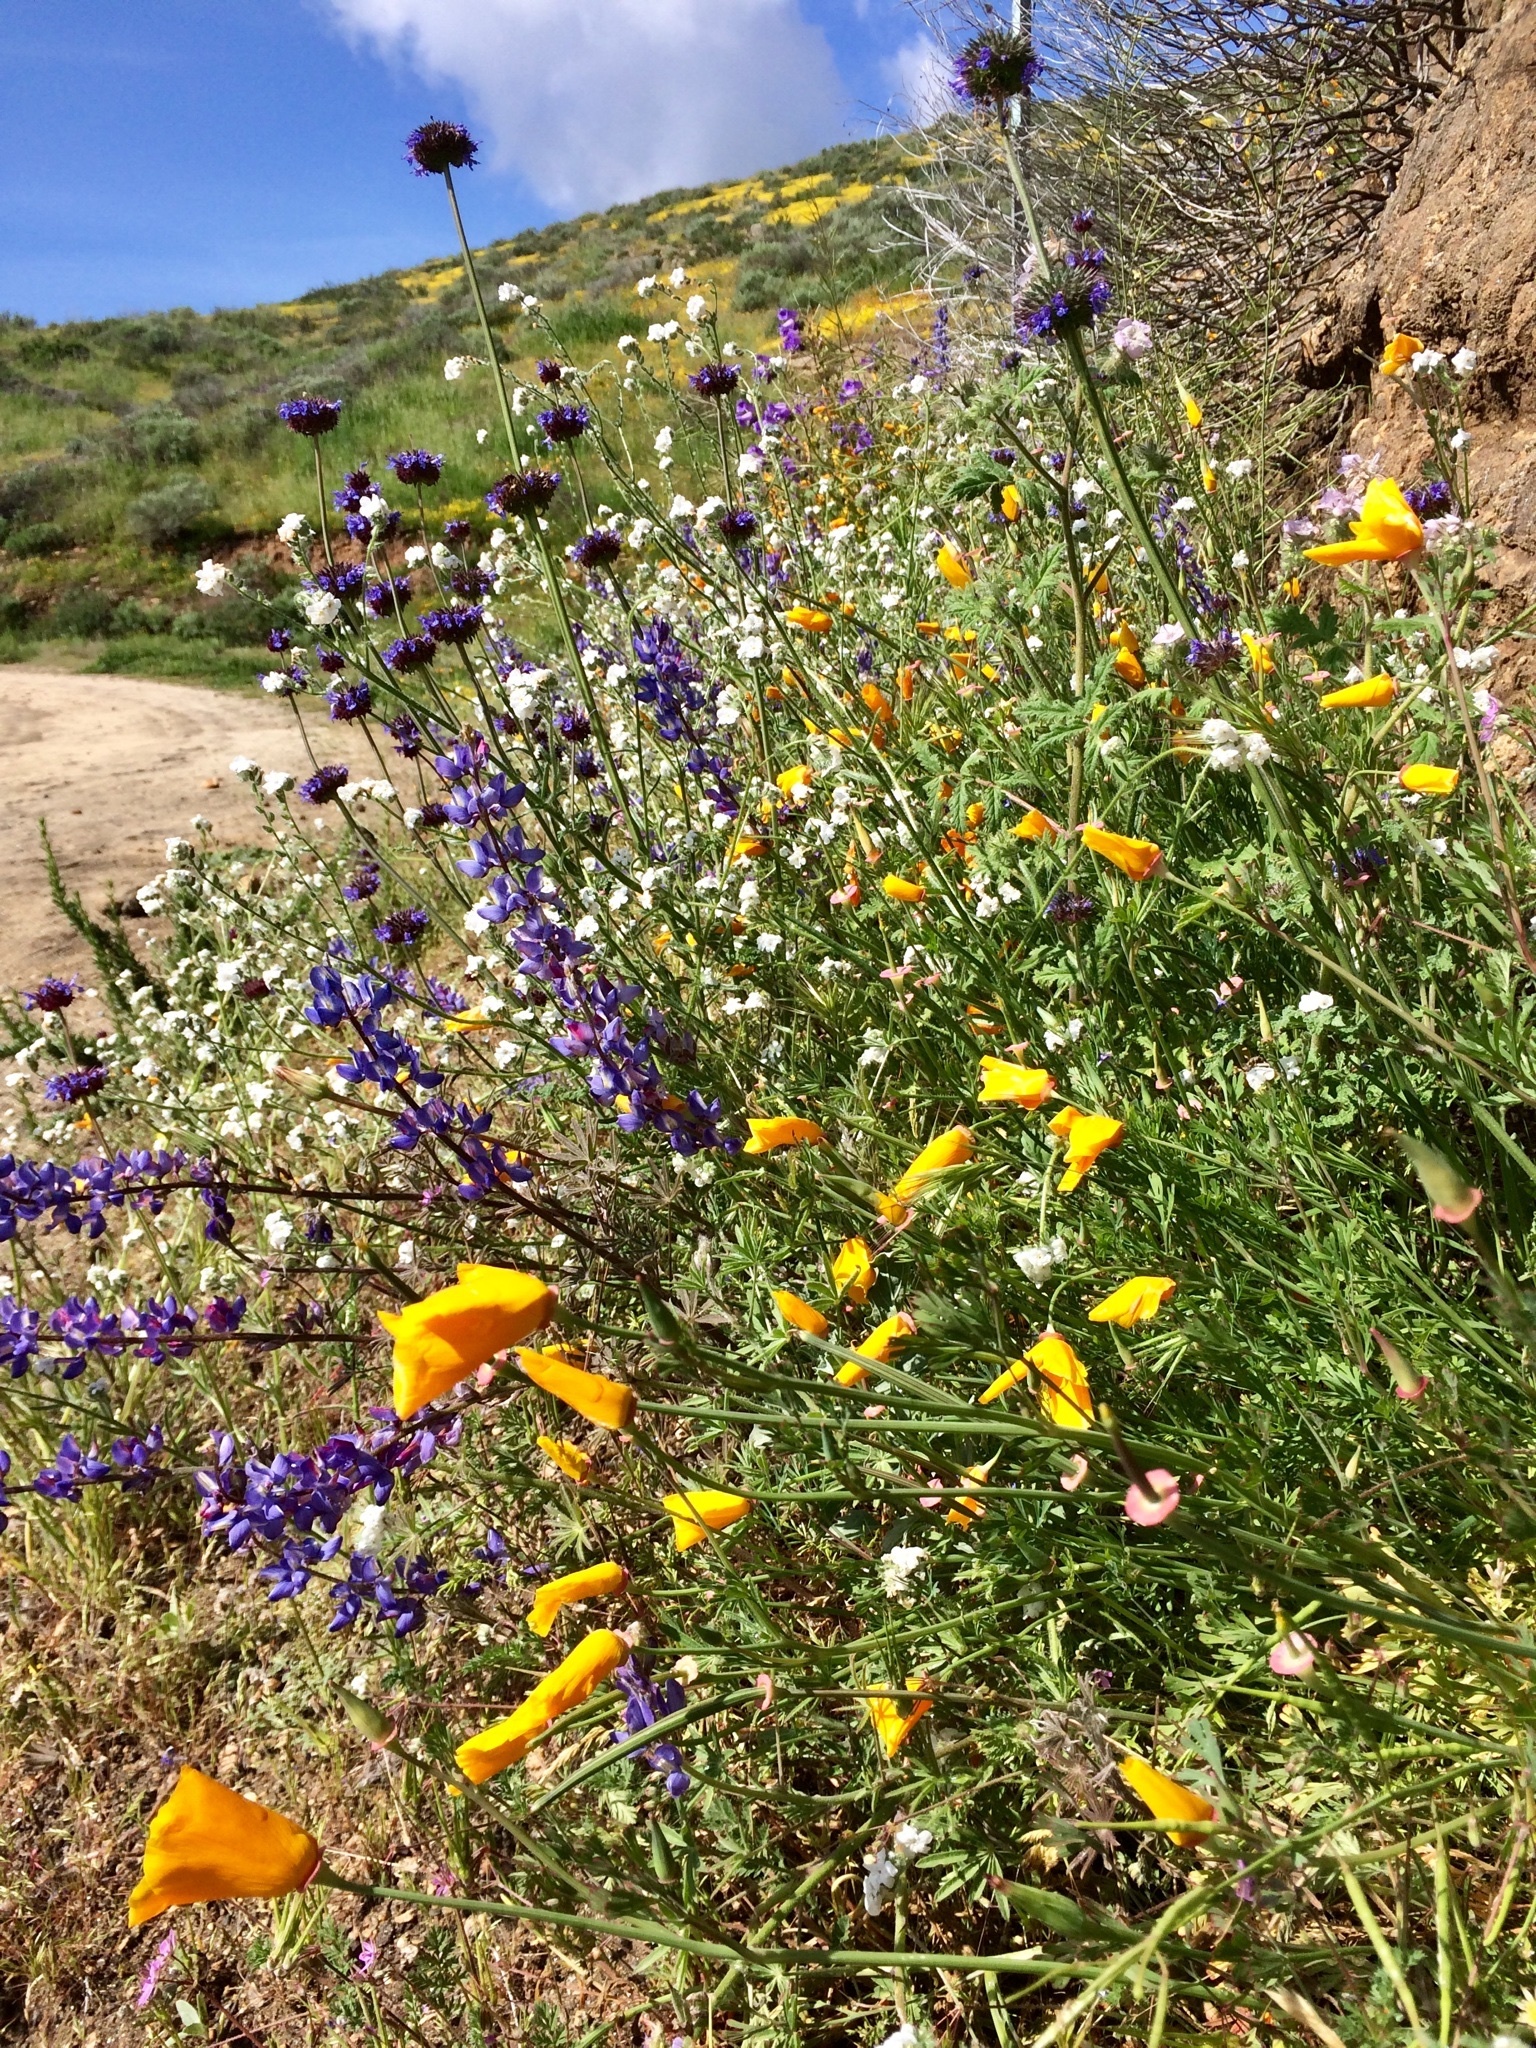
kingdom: Plantae
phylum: Tracheophyta
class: Magnoliopsida
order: Ranunculales
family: Papaveraceae
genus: Eschscholzia
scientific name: Eschscholzia californica
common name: California poppy
